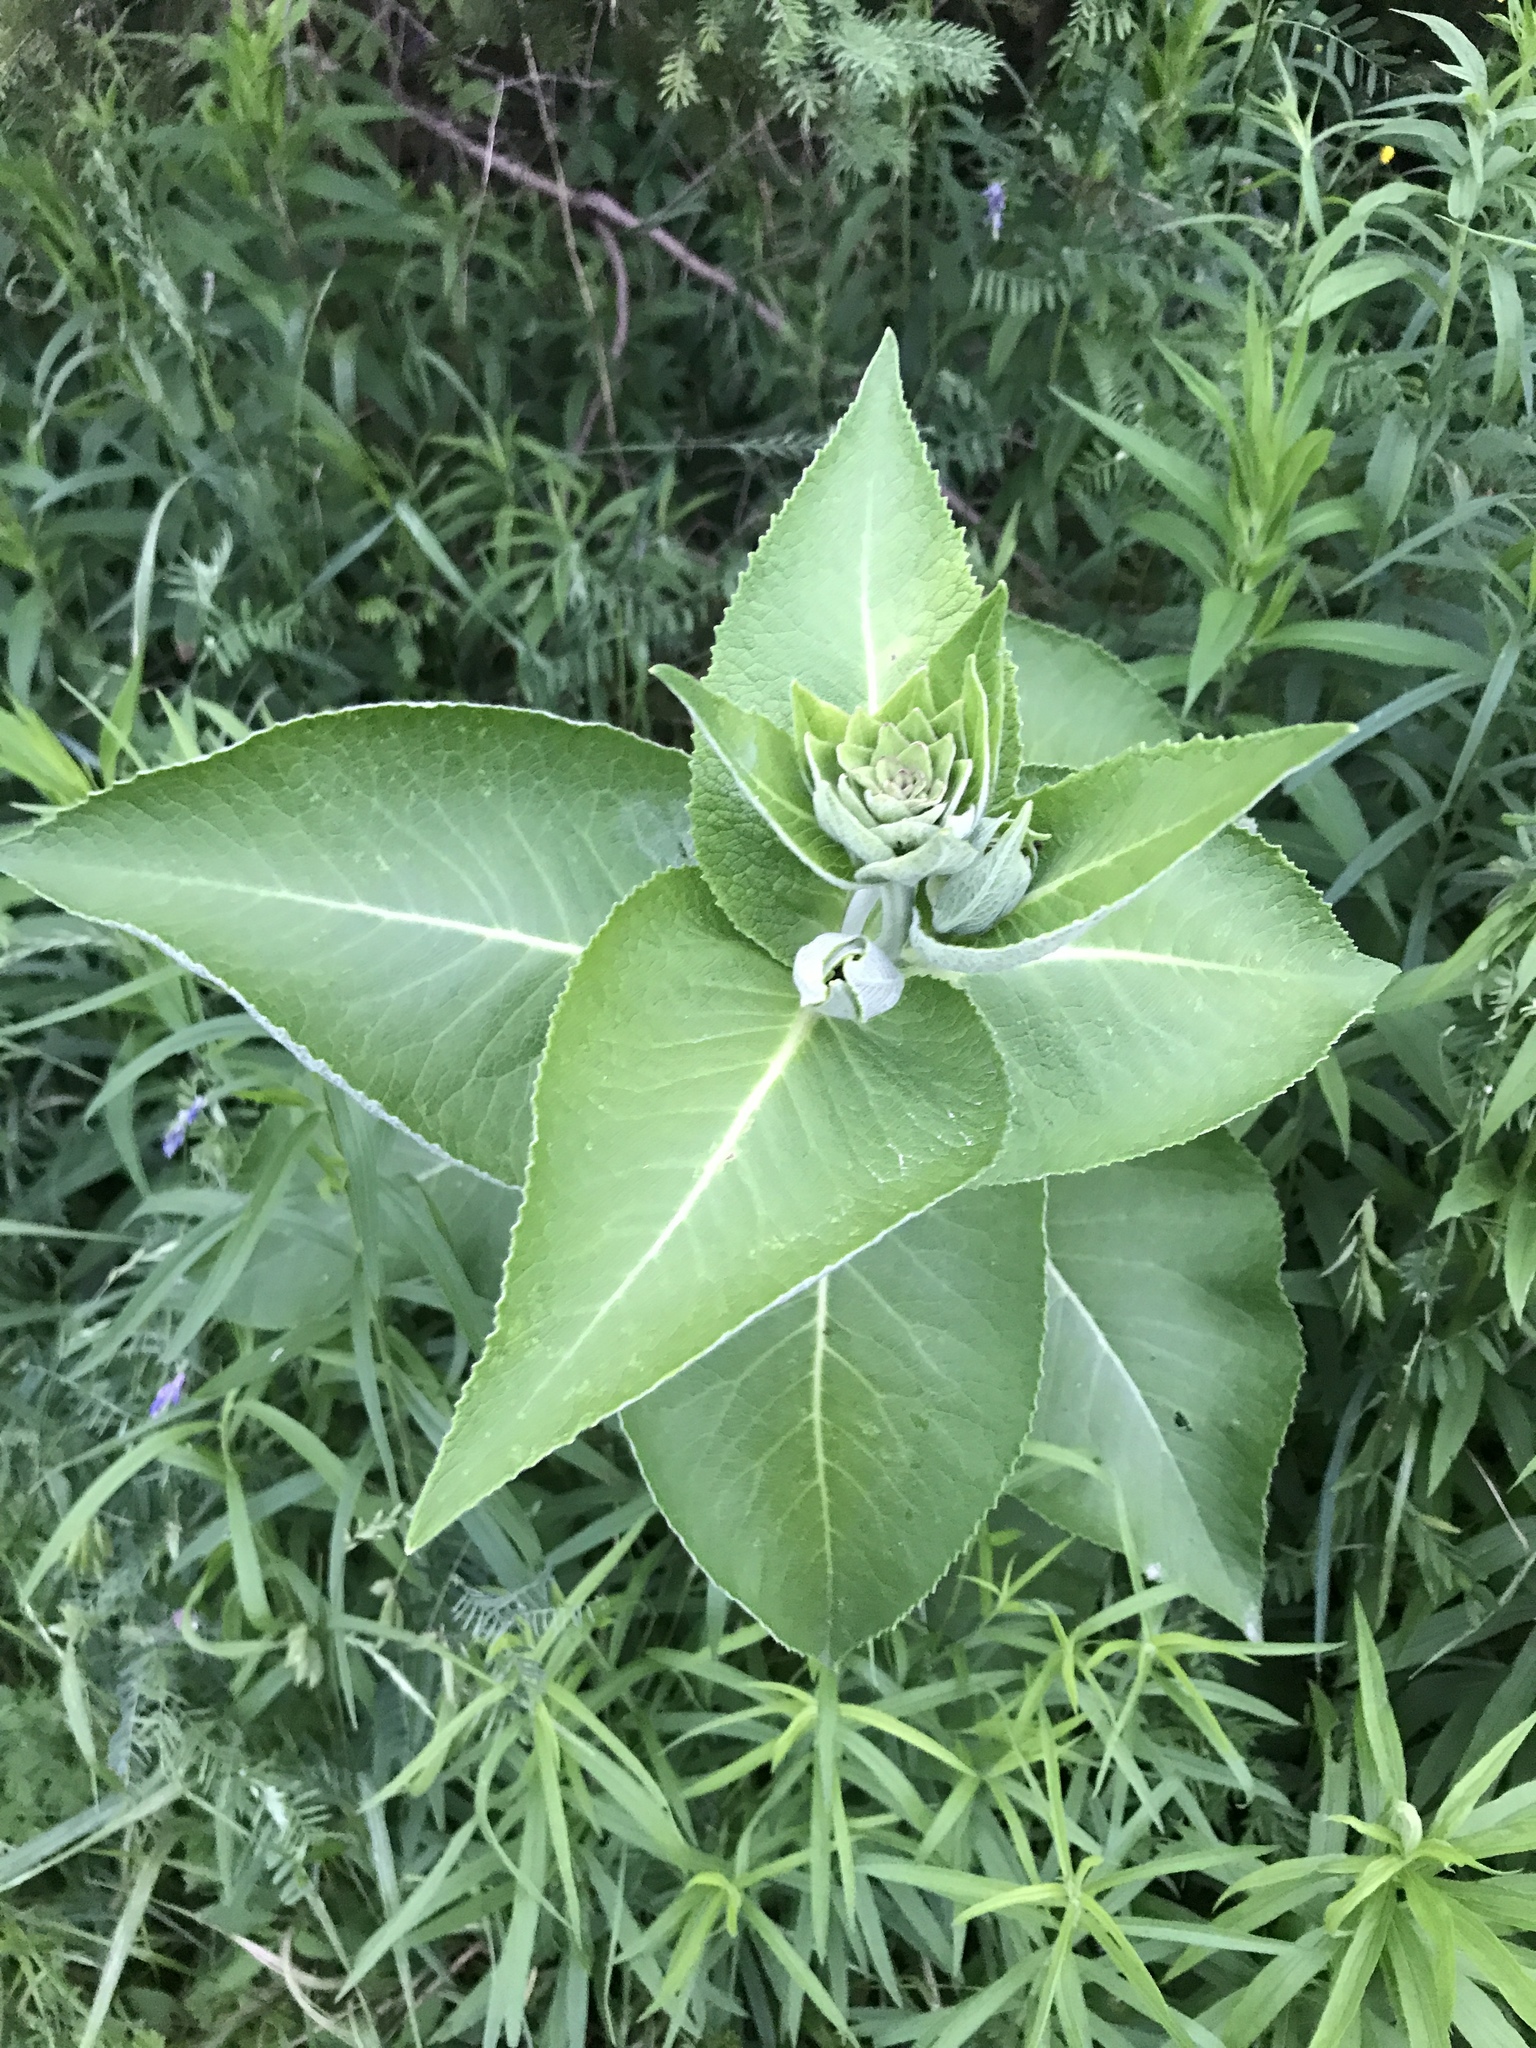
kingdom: Plantae
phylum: Tracheophyta
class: Magnoliopsida
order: Asterales
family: Asteraceae
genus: Inula
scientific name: Inula helenium
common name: Elecampane
